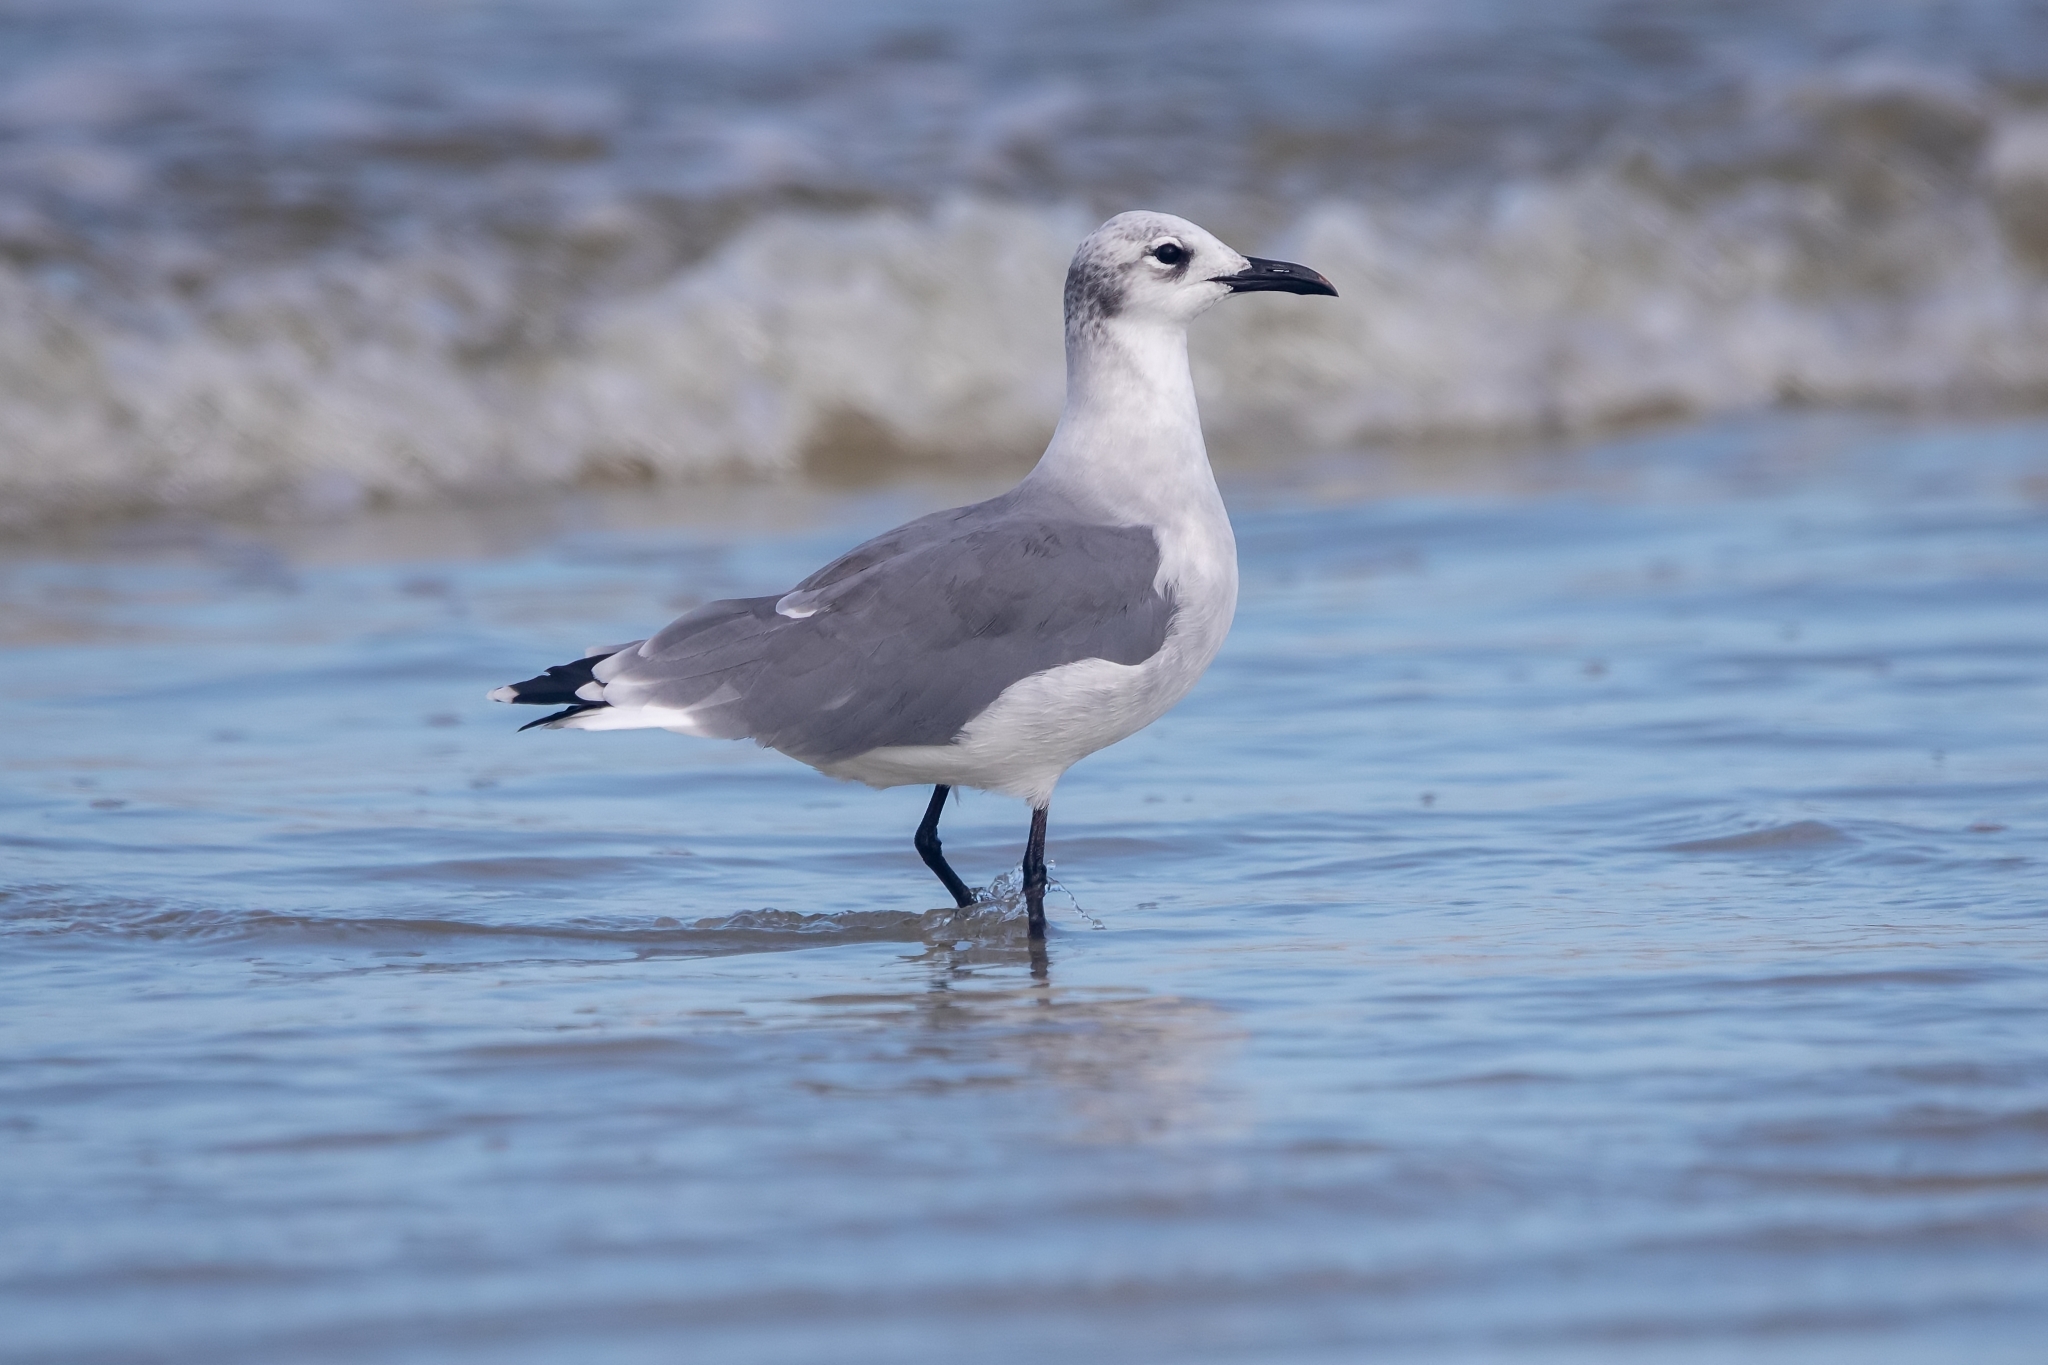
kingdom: Animalia
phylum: Chordata
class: Aves
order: Charadriiformes
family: Laridae
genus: Leucophaeus
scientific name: Leucophaeus atricilla
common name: Laughing gull
